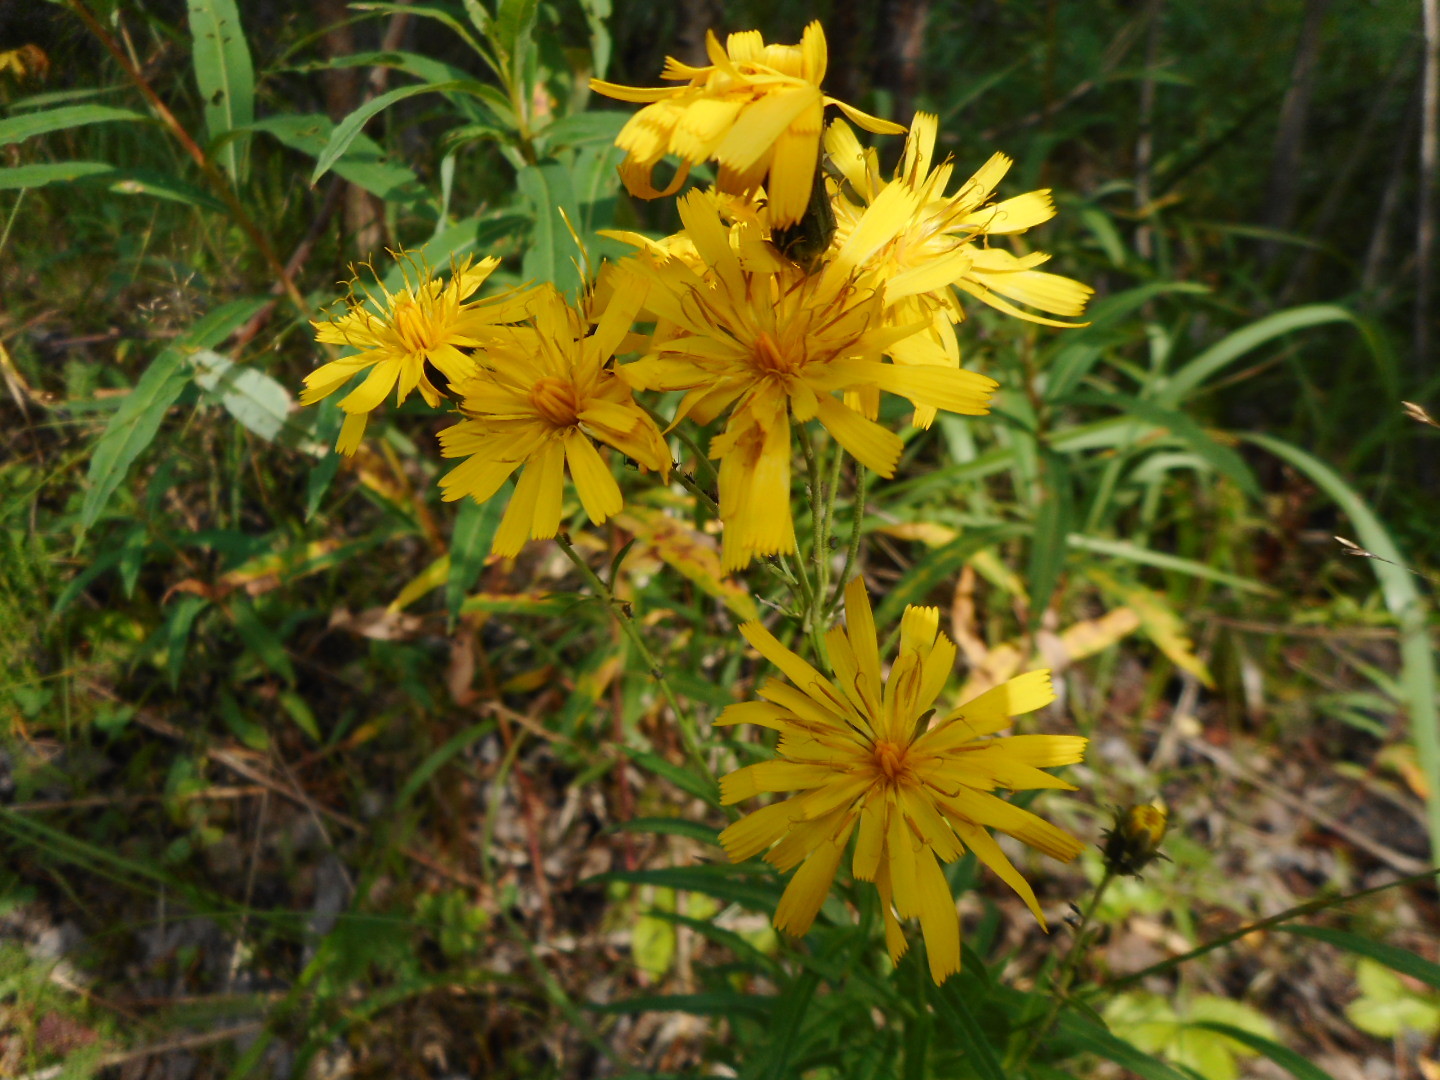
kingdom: Plantae
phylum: Tracheophyta
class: Magnoliopsida
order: Asterales
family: Asteraceae
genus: Hieracium
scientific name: Hieracium umbellatum
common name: Northern hawkweed
